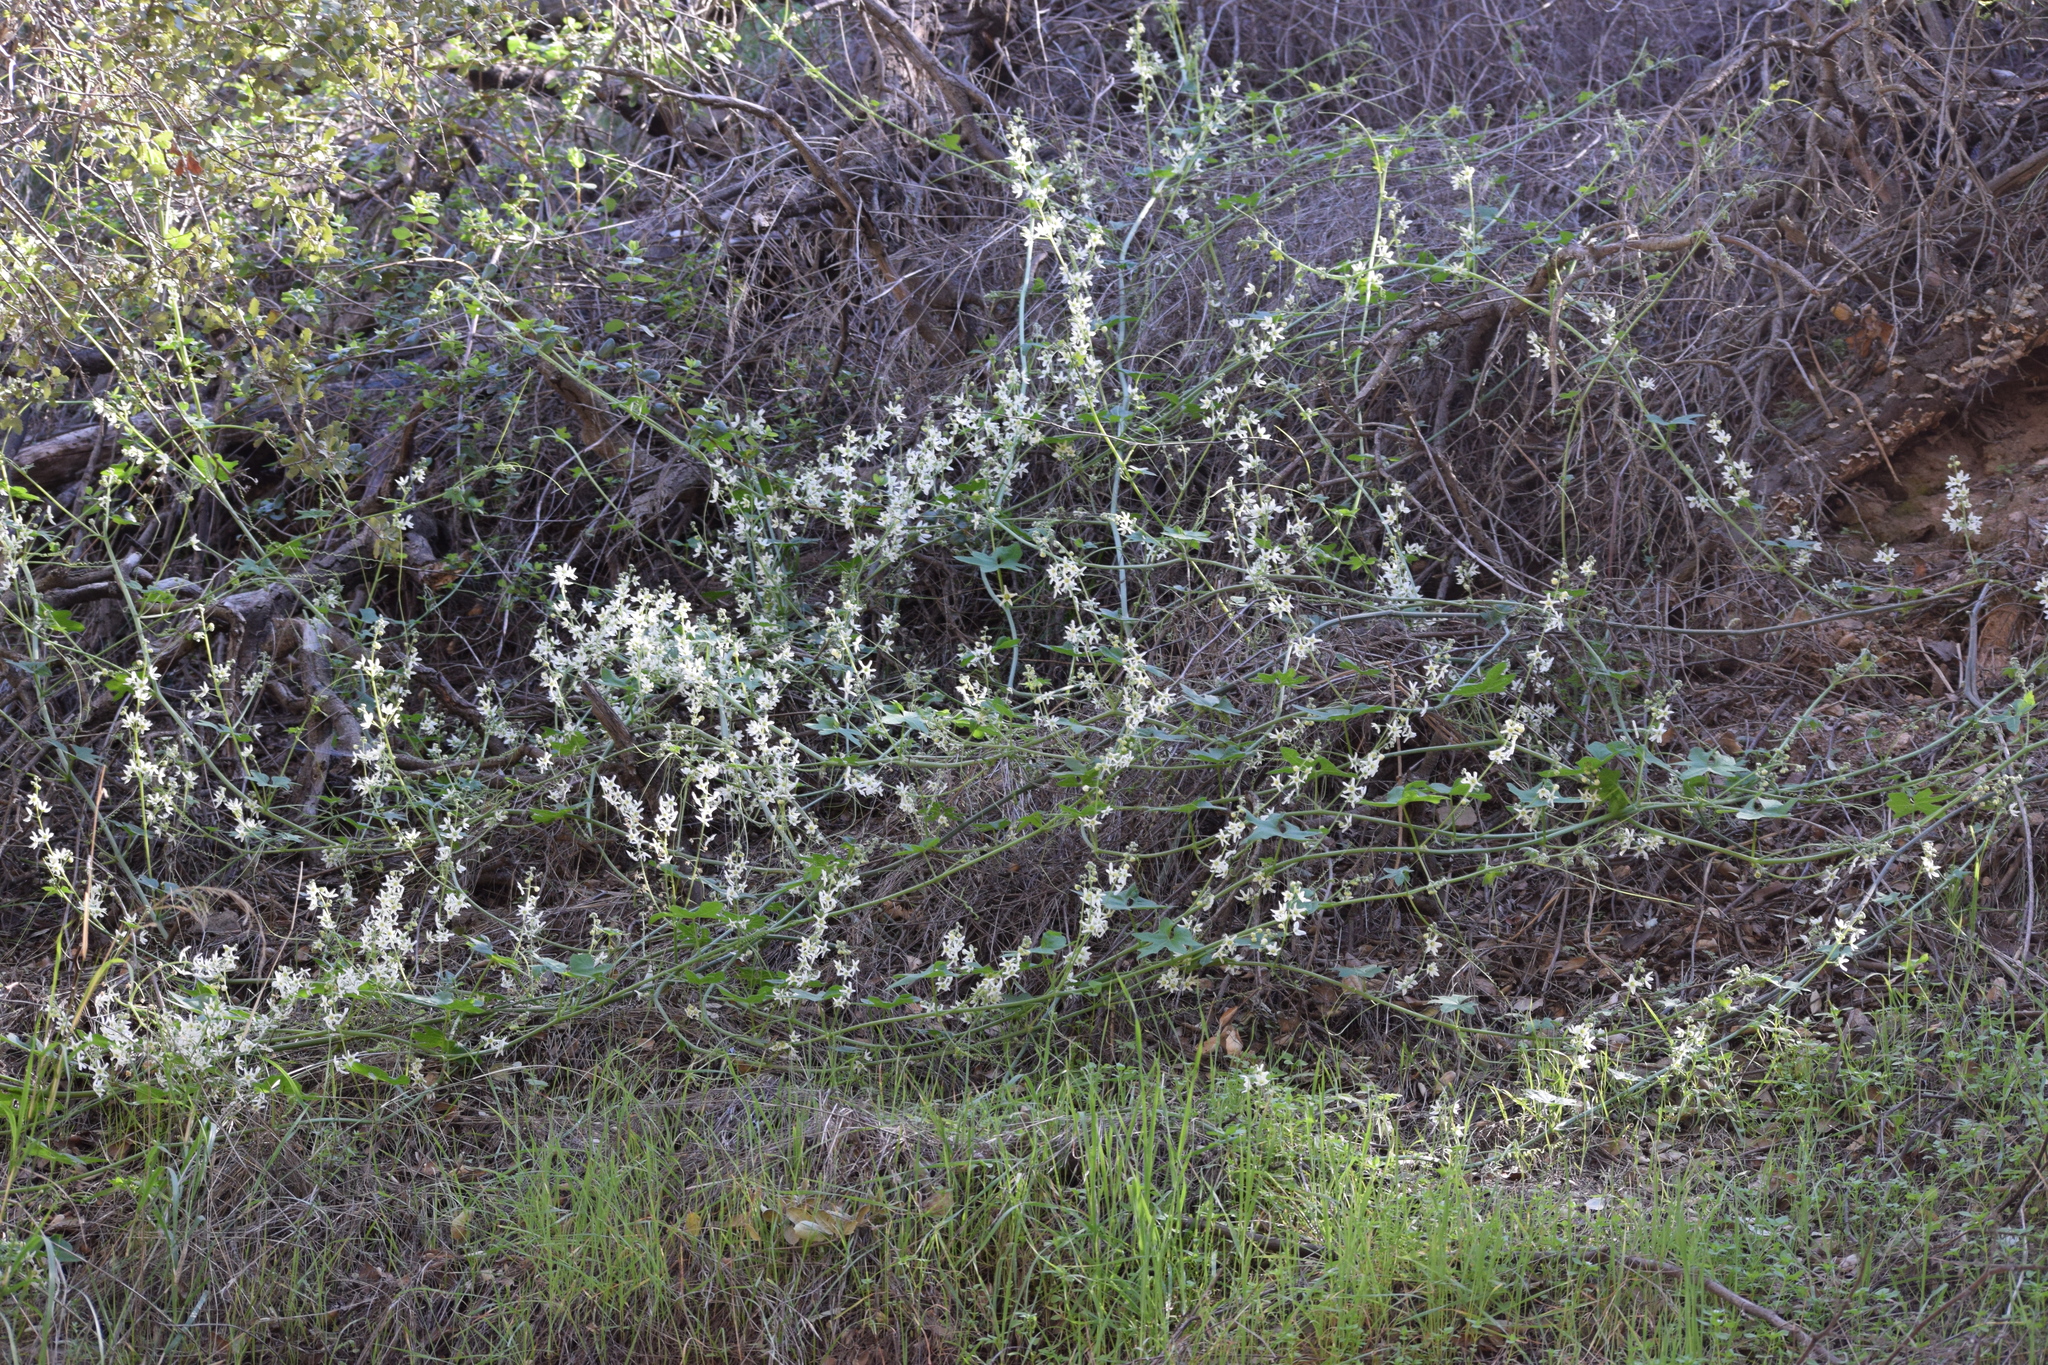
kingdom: Plantae
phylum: Tracheophyta
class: Magnoliopsida
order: Cucurbitales
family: Cucurbitaceae
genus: Marah
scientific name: Marah macrocarpa
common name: Cucamonga manroot
